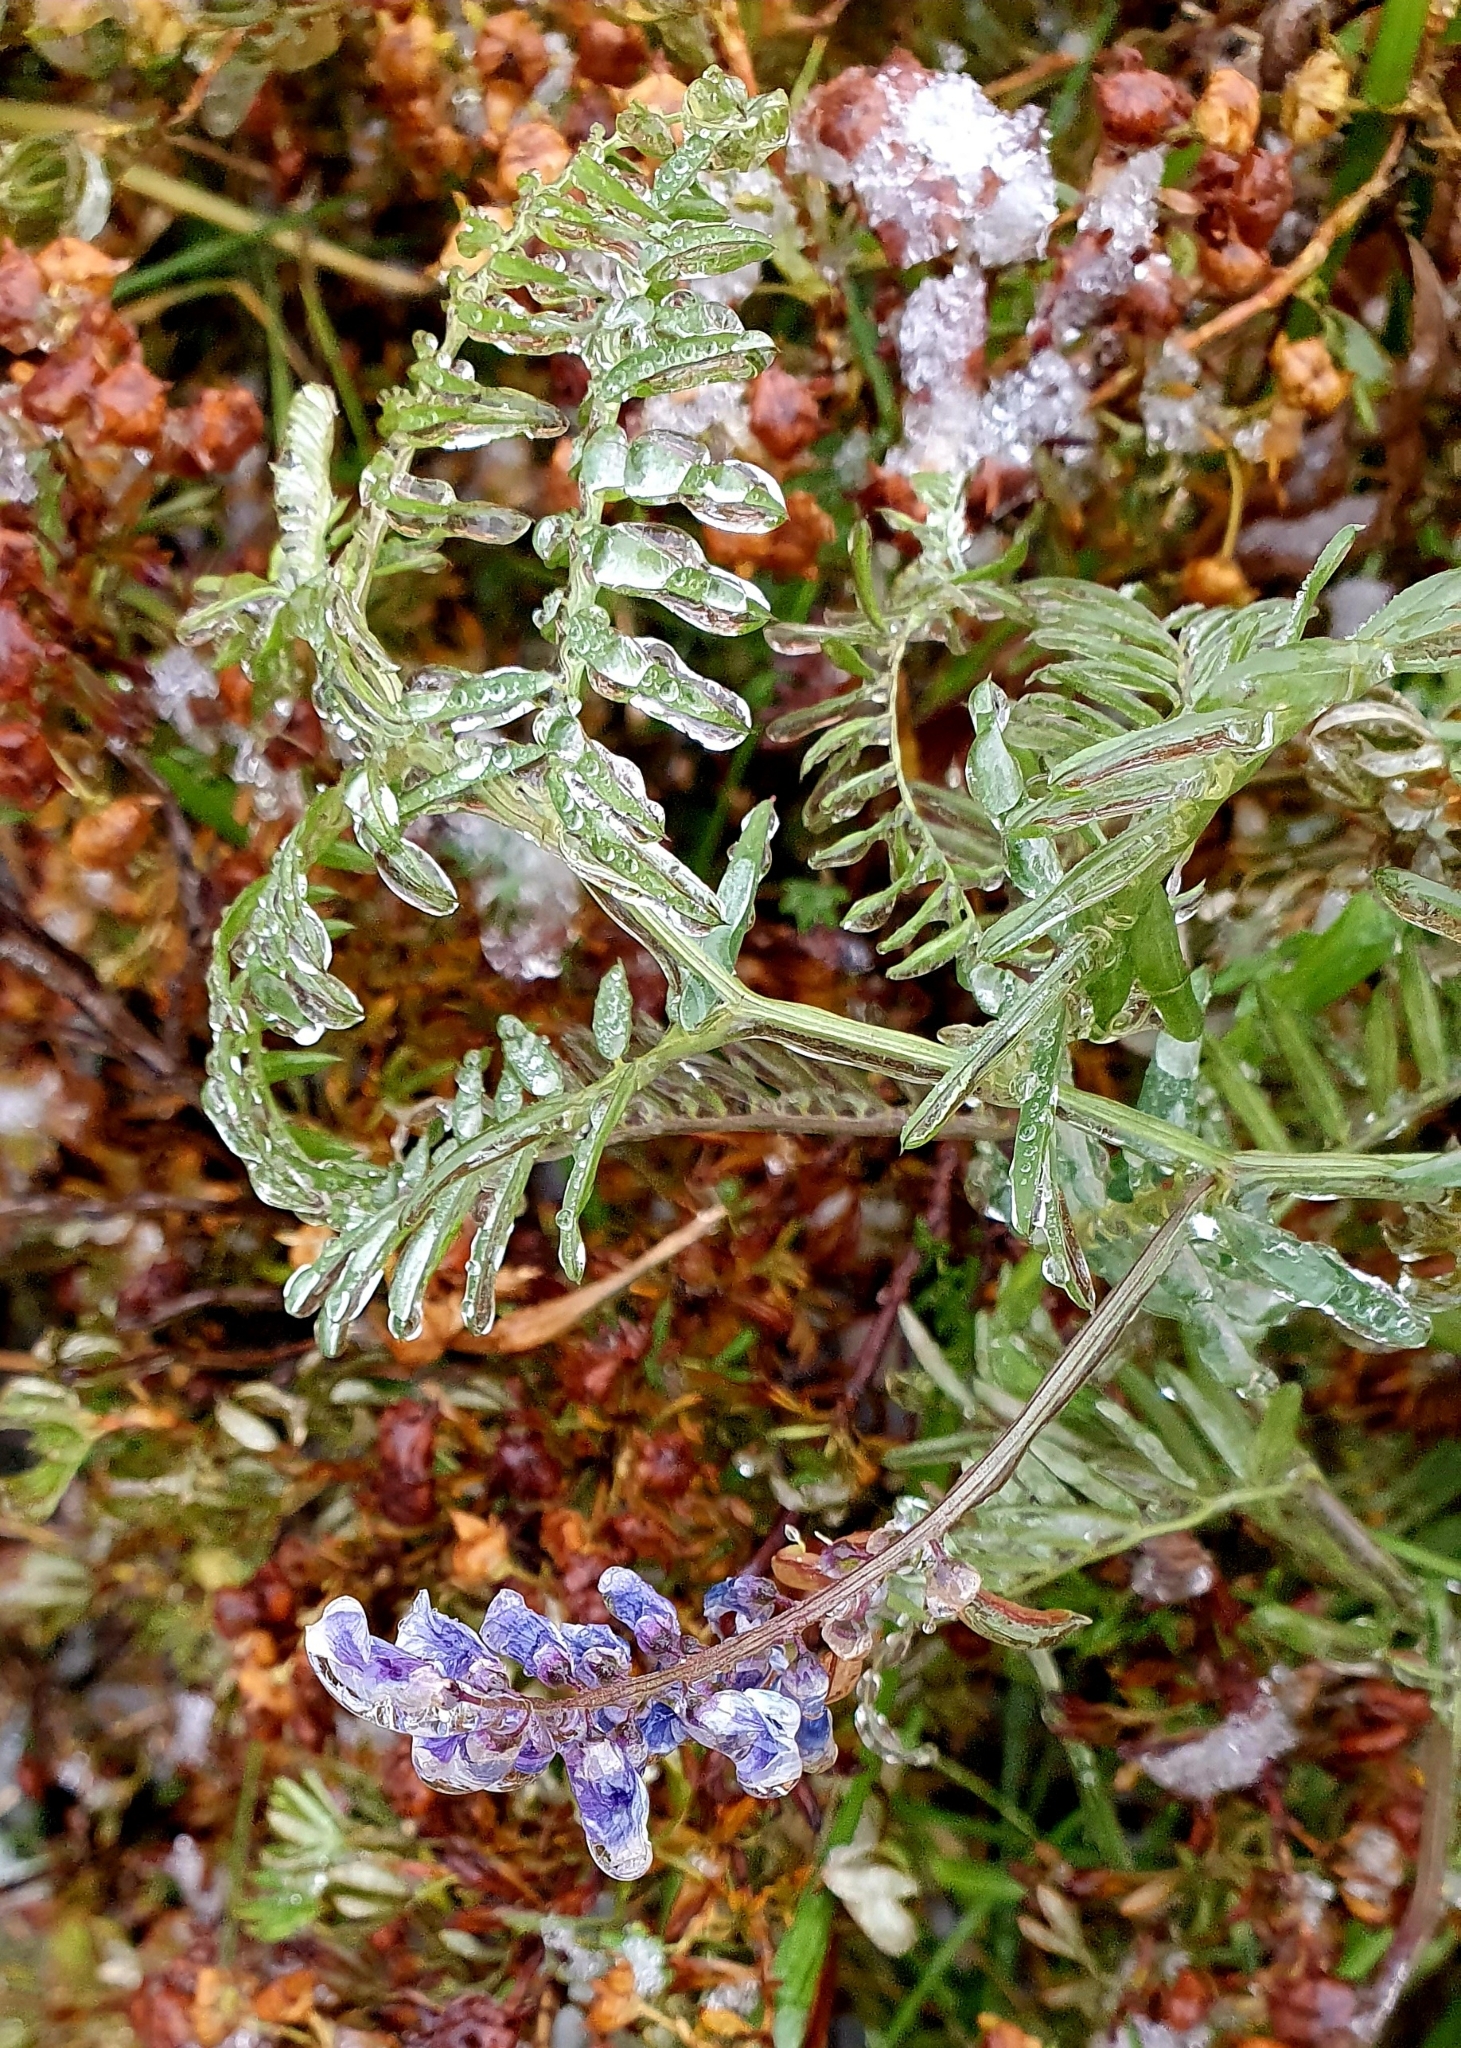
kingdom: Plantae
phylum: Tracheophyta
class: Magnoliopsida
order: Fabales
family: Fabaceae
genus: Vicia
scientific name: Vicia cracca
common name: Bird vetch
